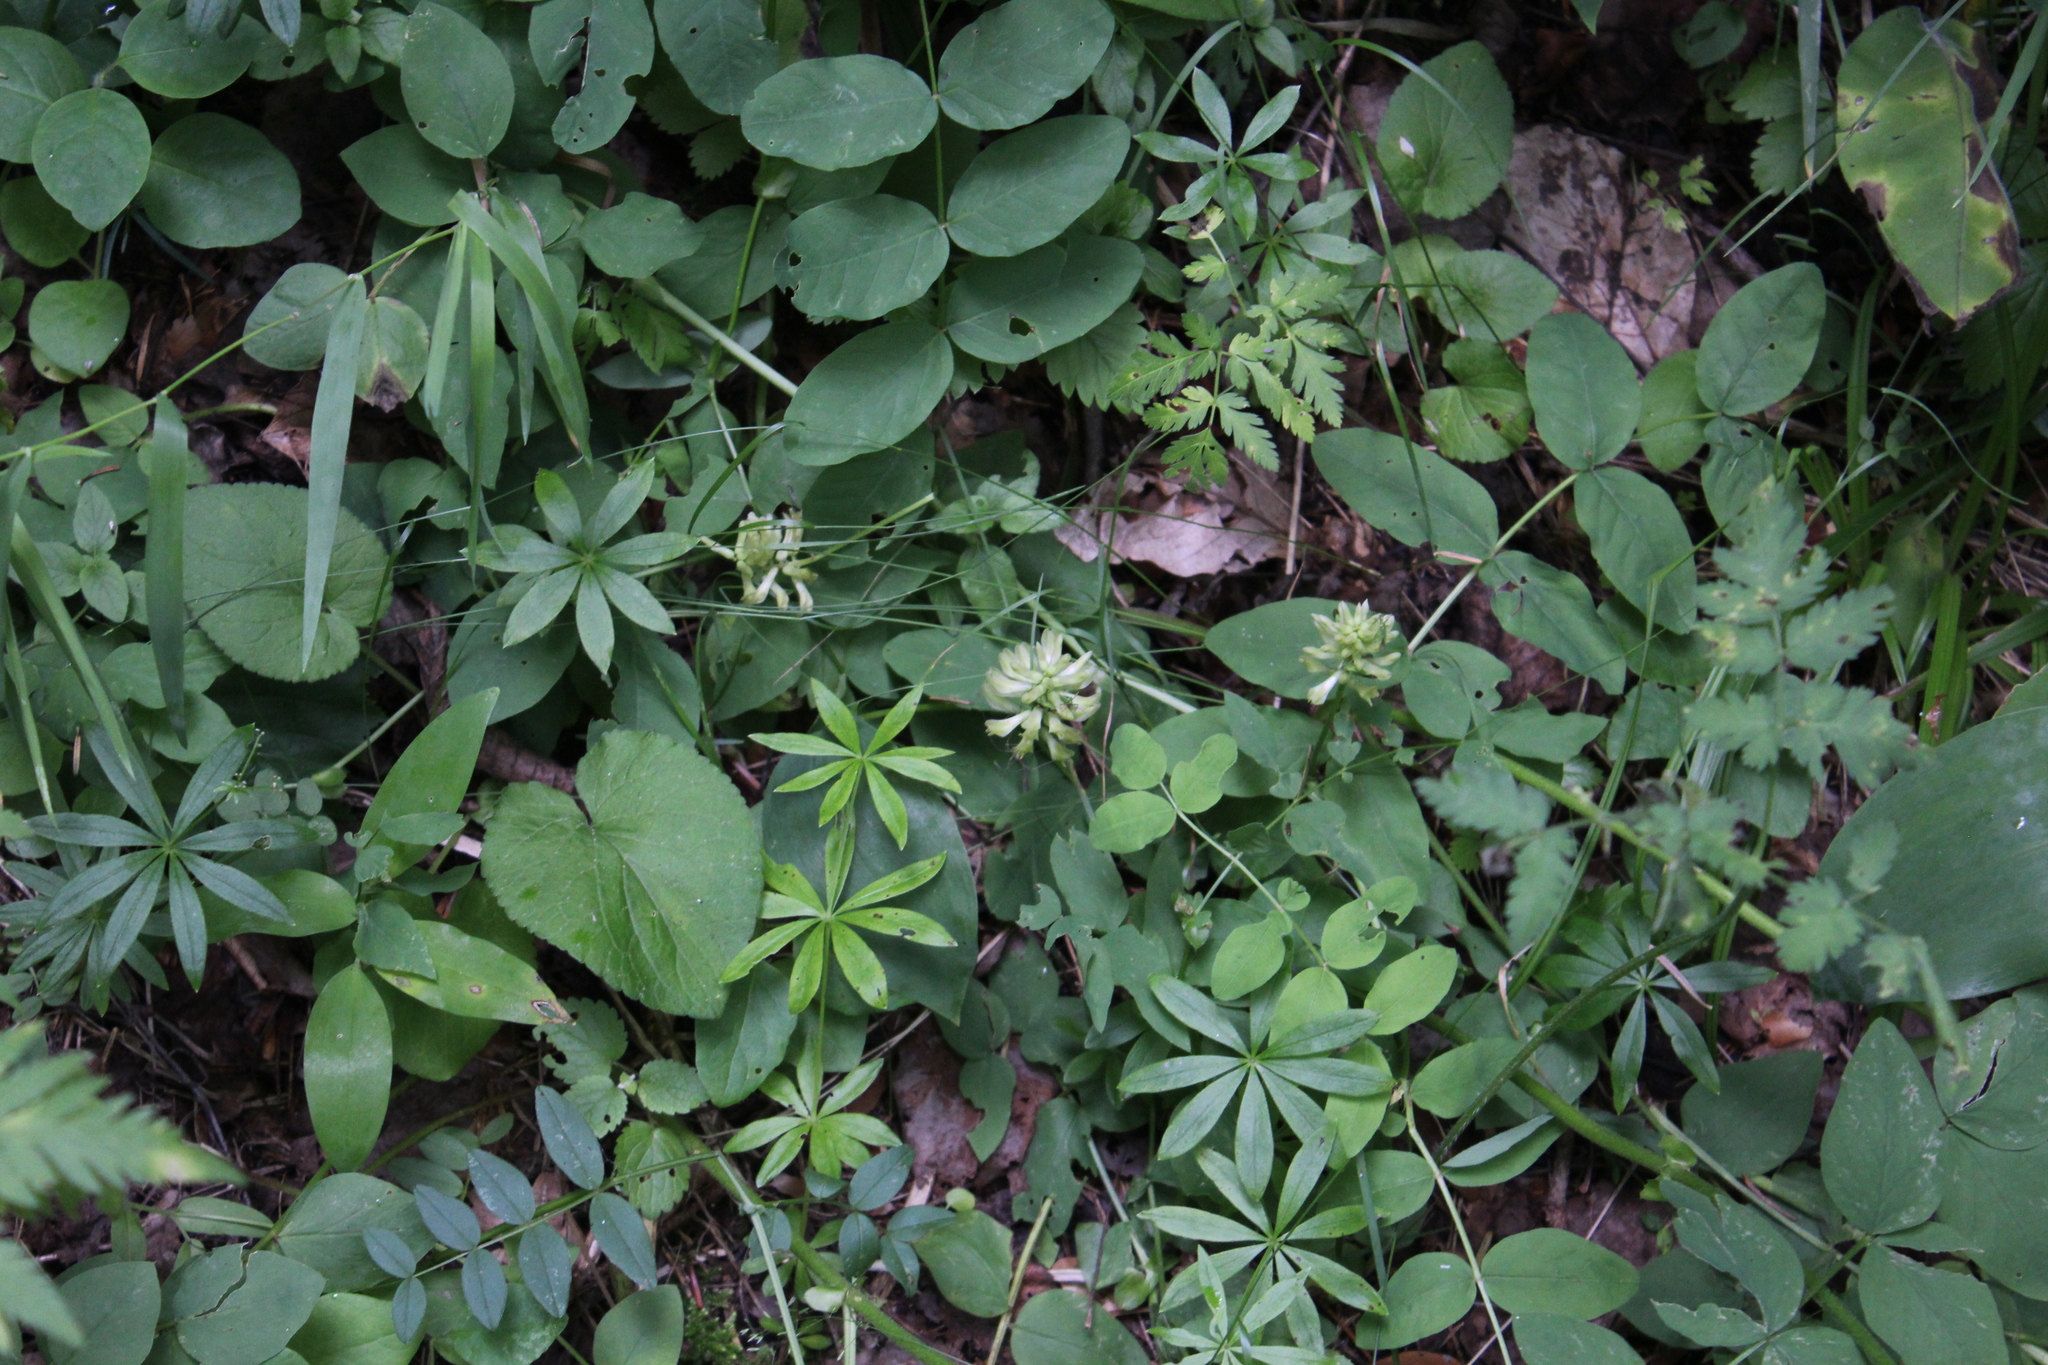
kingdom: Plantae
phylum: Tracheophyta
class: Magnoliopsida
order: Fabales
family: Fabaceae
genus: Astragalus
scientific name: Astragalus glycyphyllos
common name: Wild liquorice
